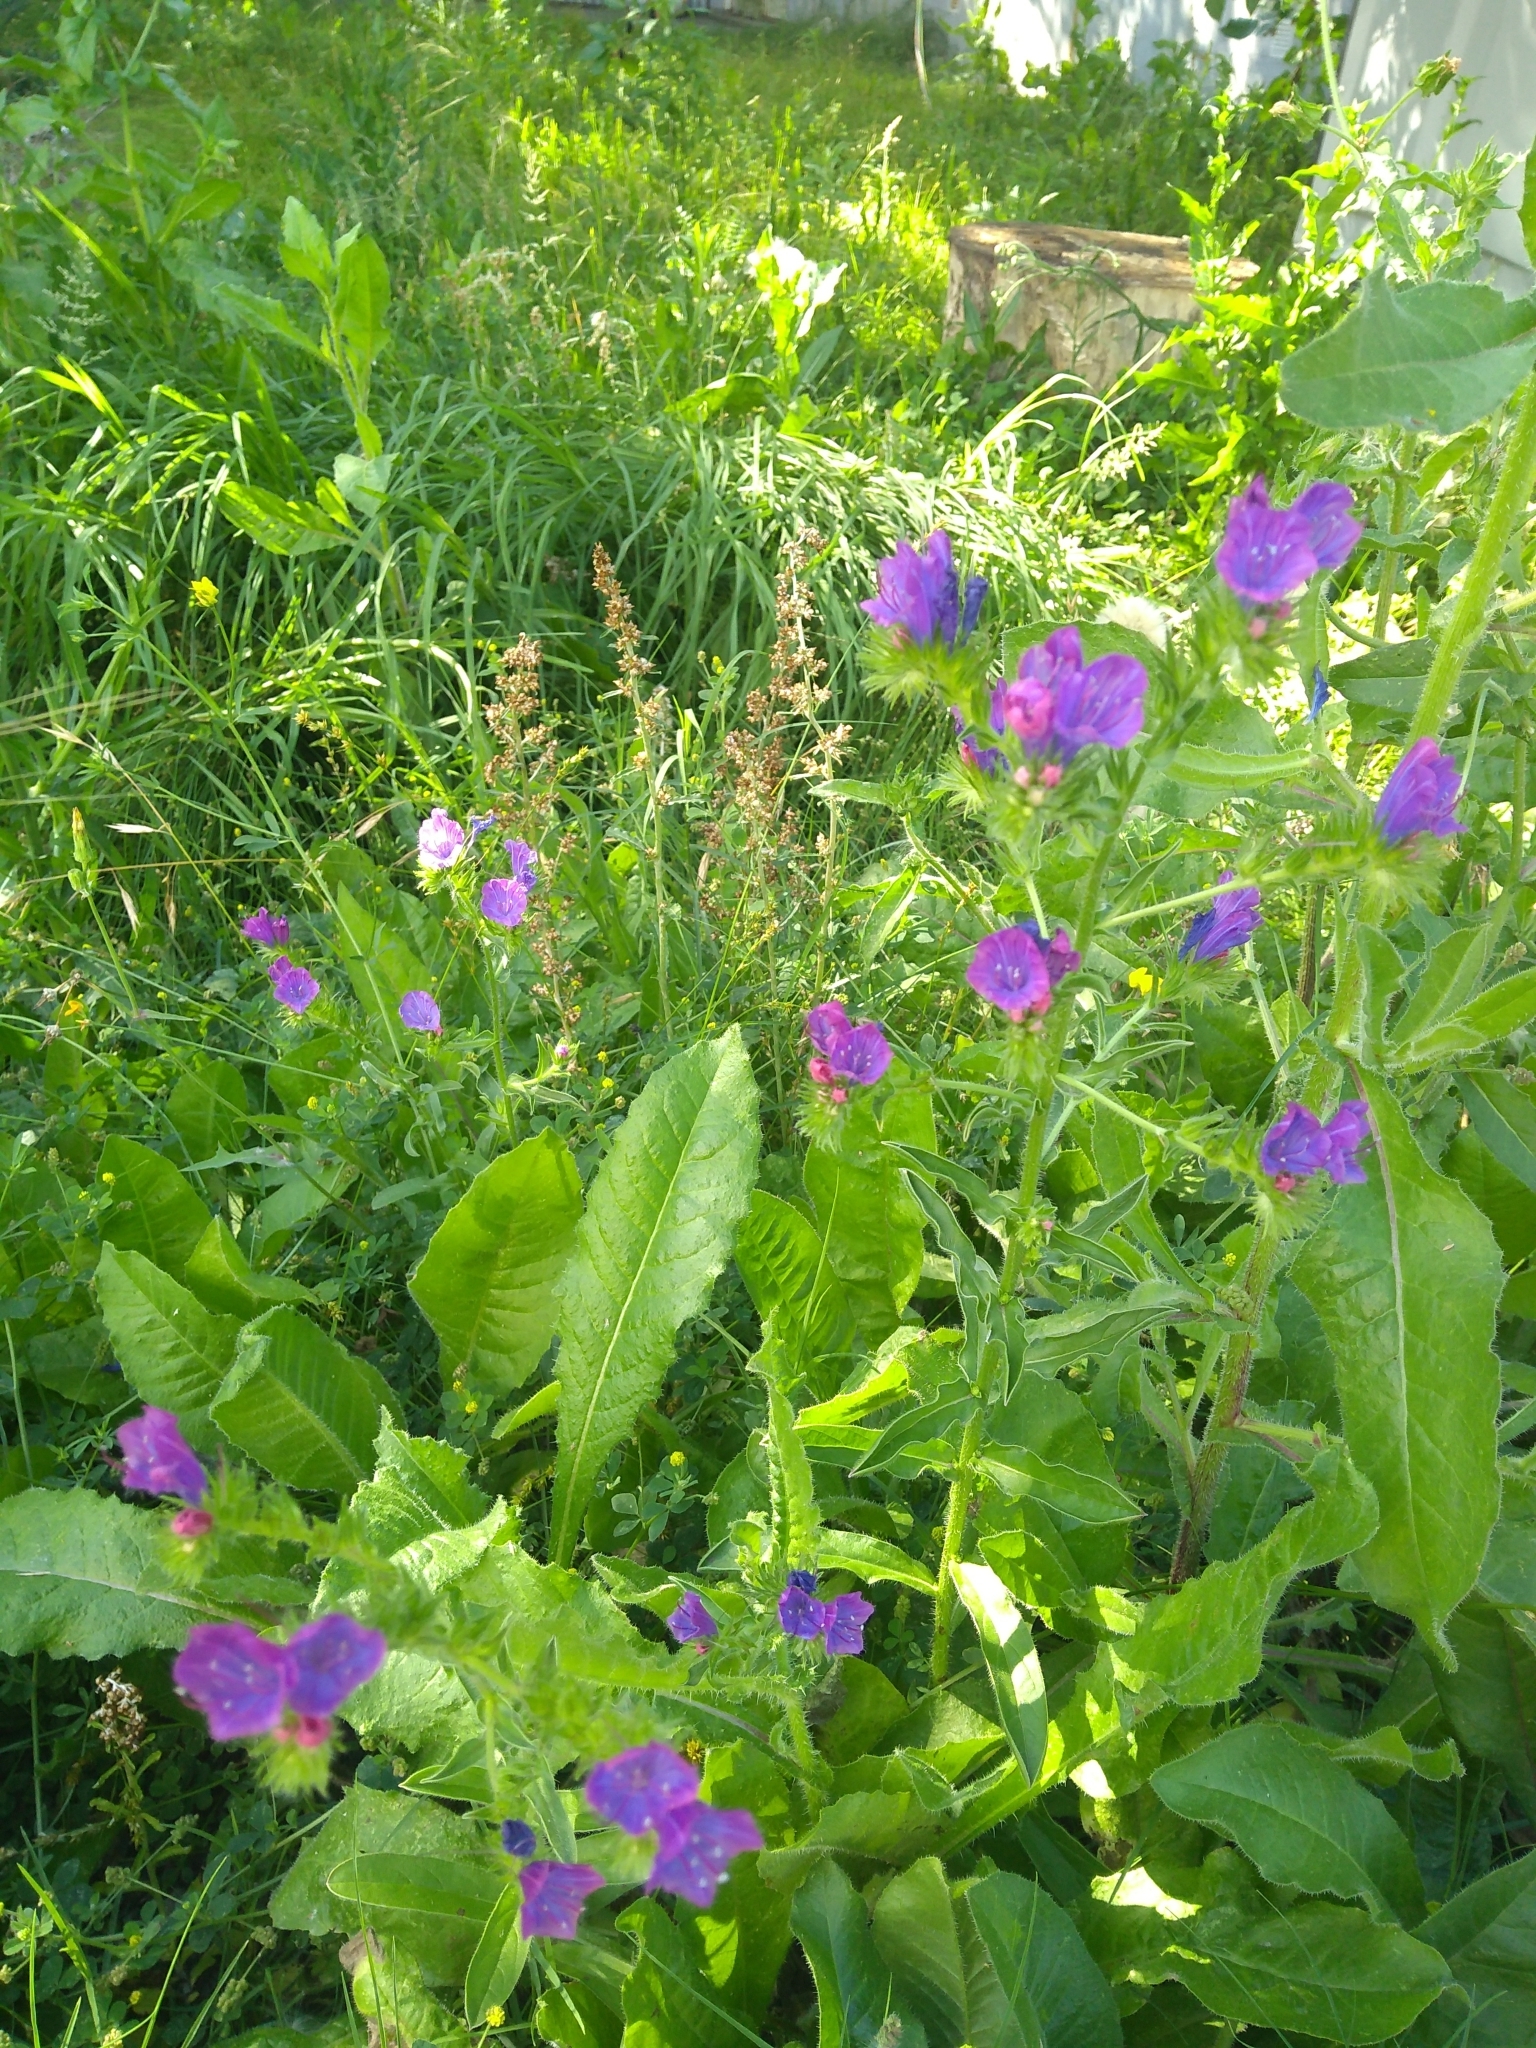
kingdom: Plantae
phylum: Tracheophyta
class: Magnoliopsida
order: Boraginales
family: Boraginaceae
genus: Echium
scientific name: Echium plantagineum
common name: Purple viper's-bugloss
